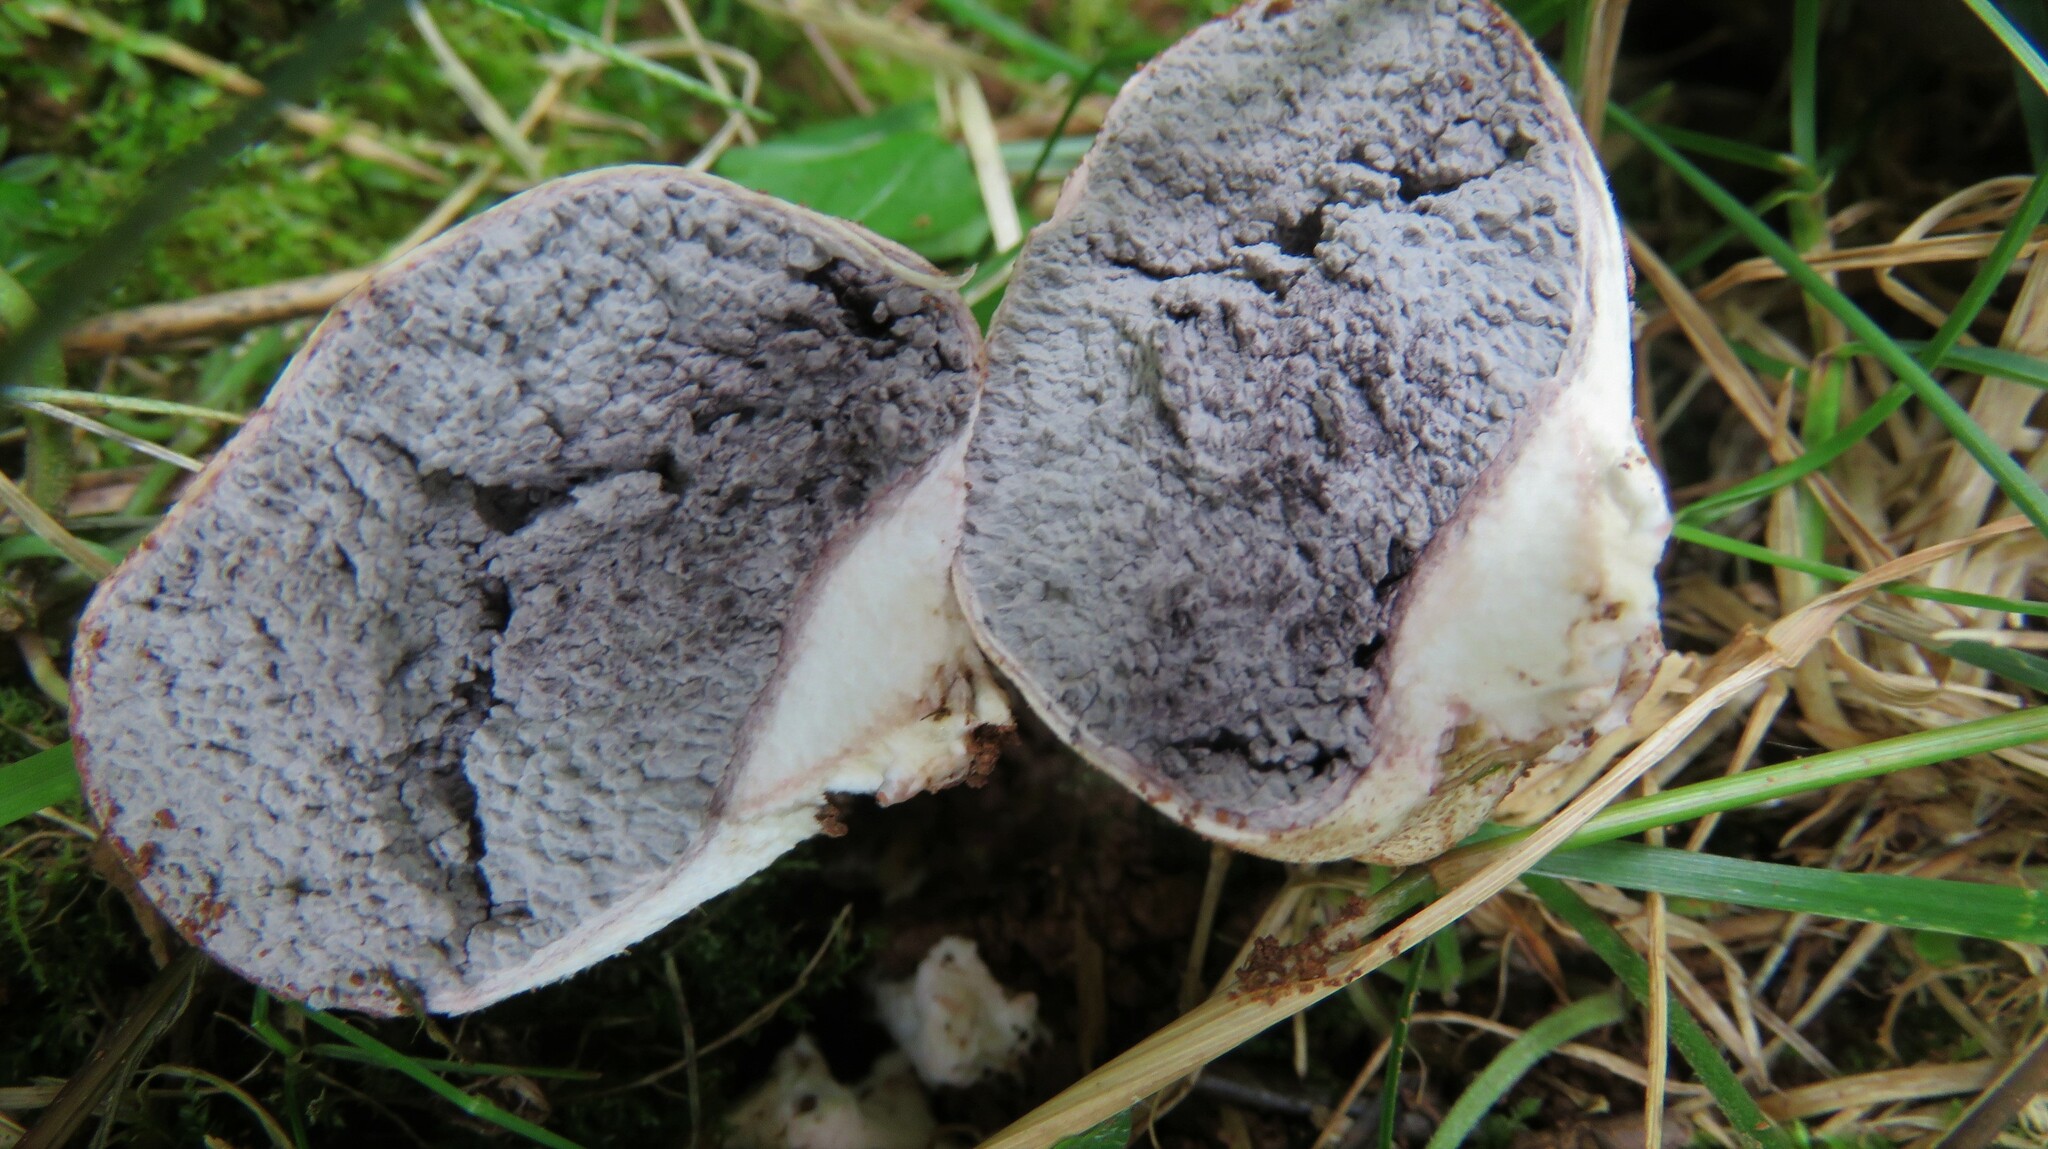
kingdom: Fungi
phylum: Basidiomycota
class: Agaricomycetes
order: Boletales
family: Sclerodermataceae
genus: Scleroderma
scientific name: Scleroderma citrinum
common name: Common earthball
